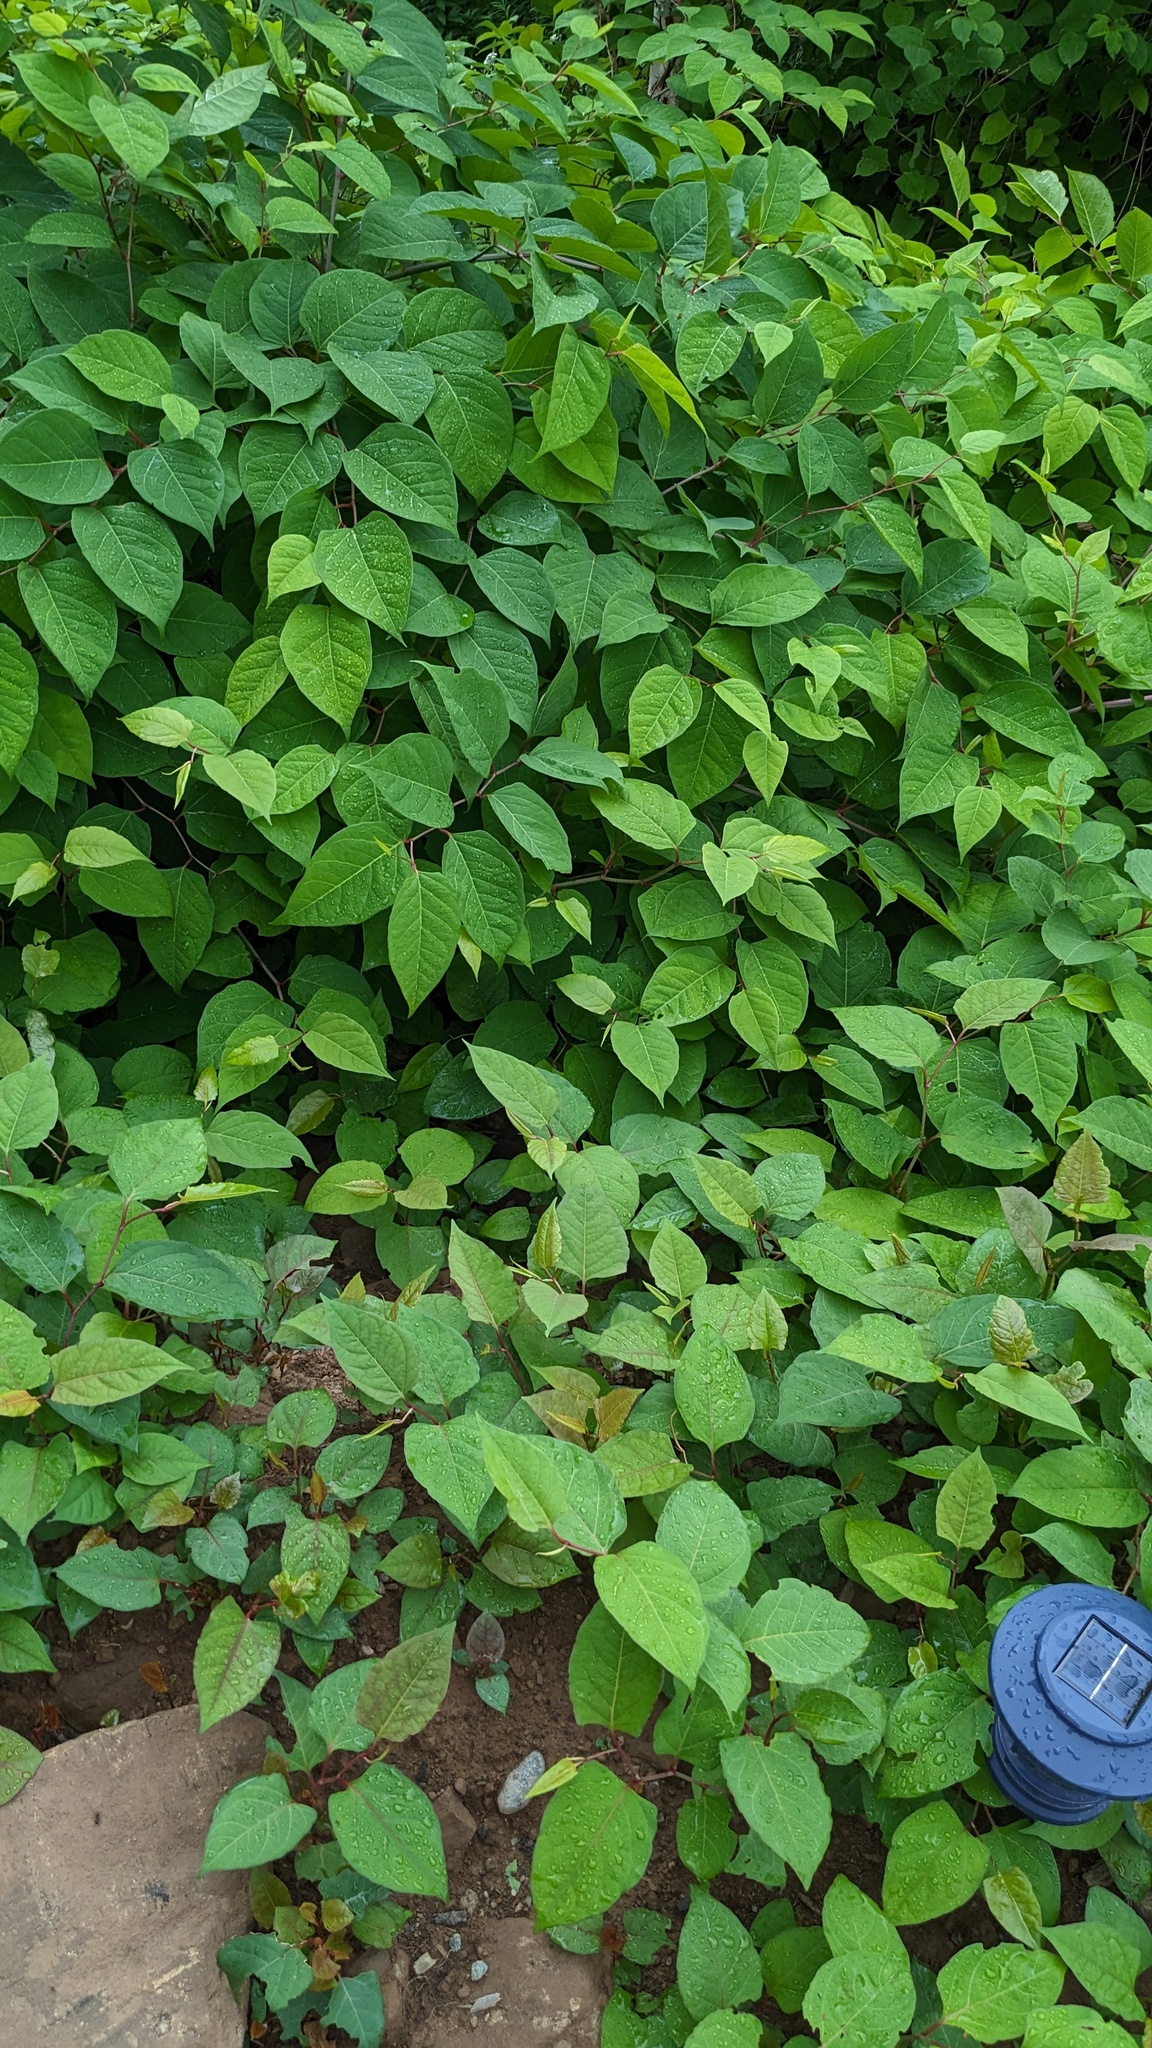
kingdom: Plantae
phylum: Tracheophyta
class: Magnoliopsida
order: Caryophyllales
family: Polygonaceae
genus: Reynoutria
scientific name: Reynoutria japonica
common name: Japanese knotweed
